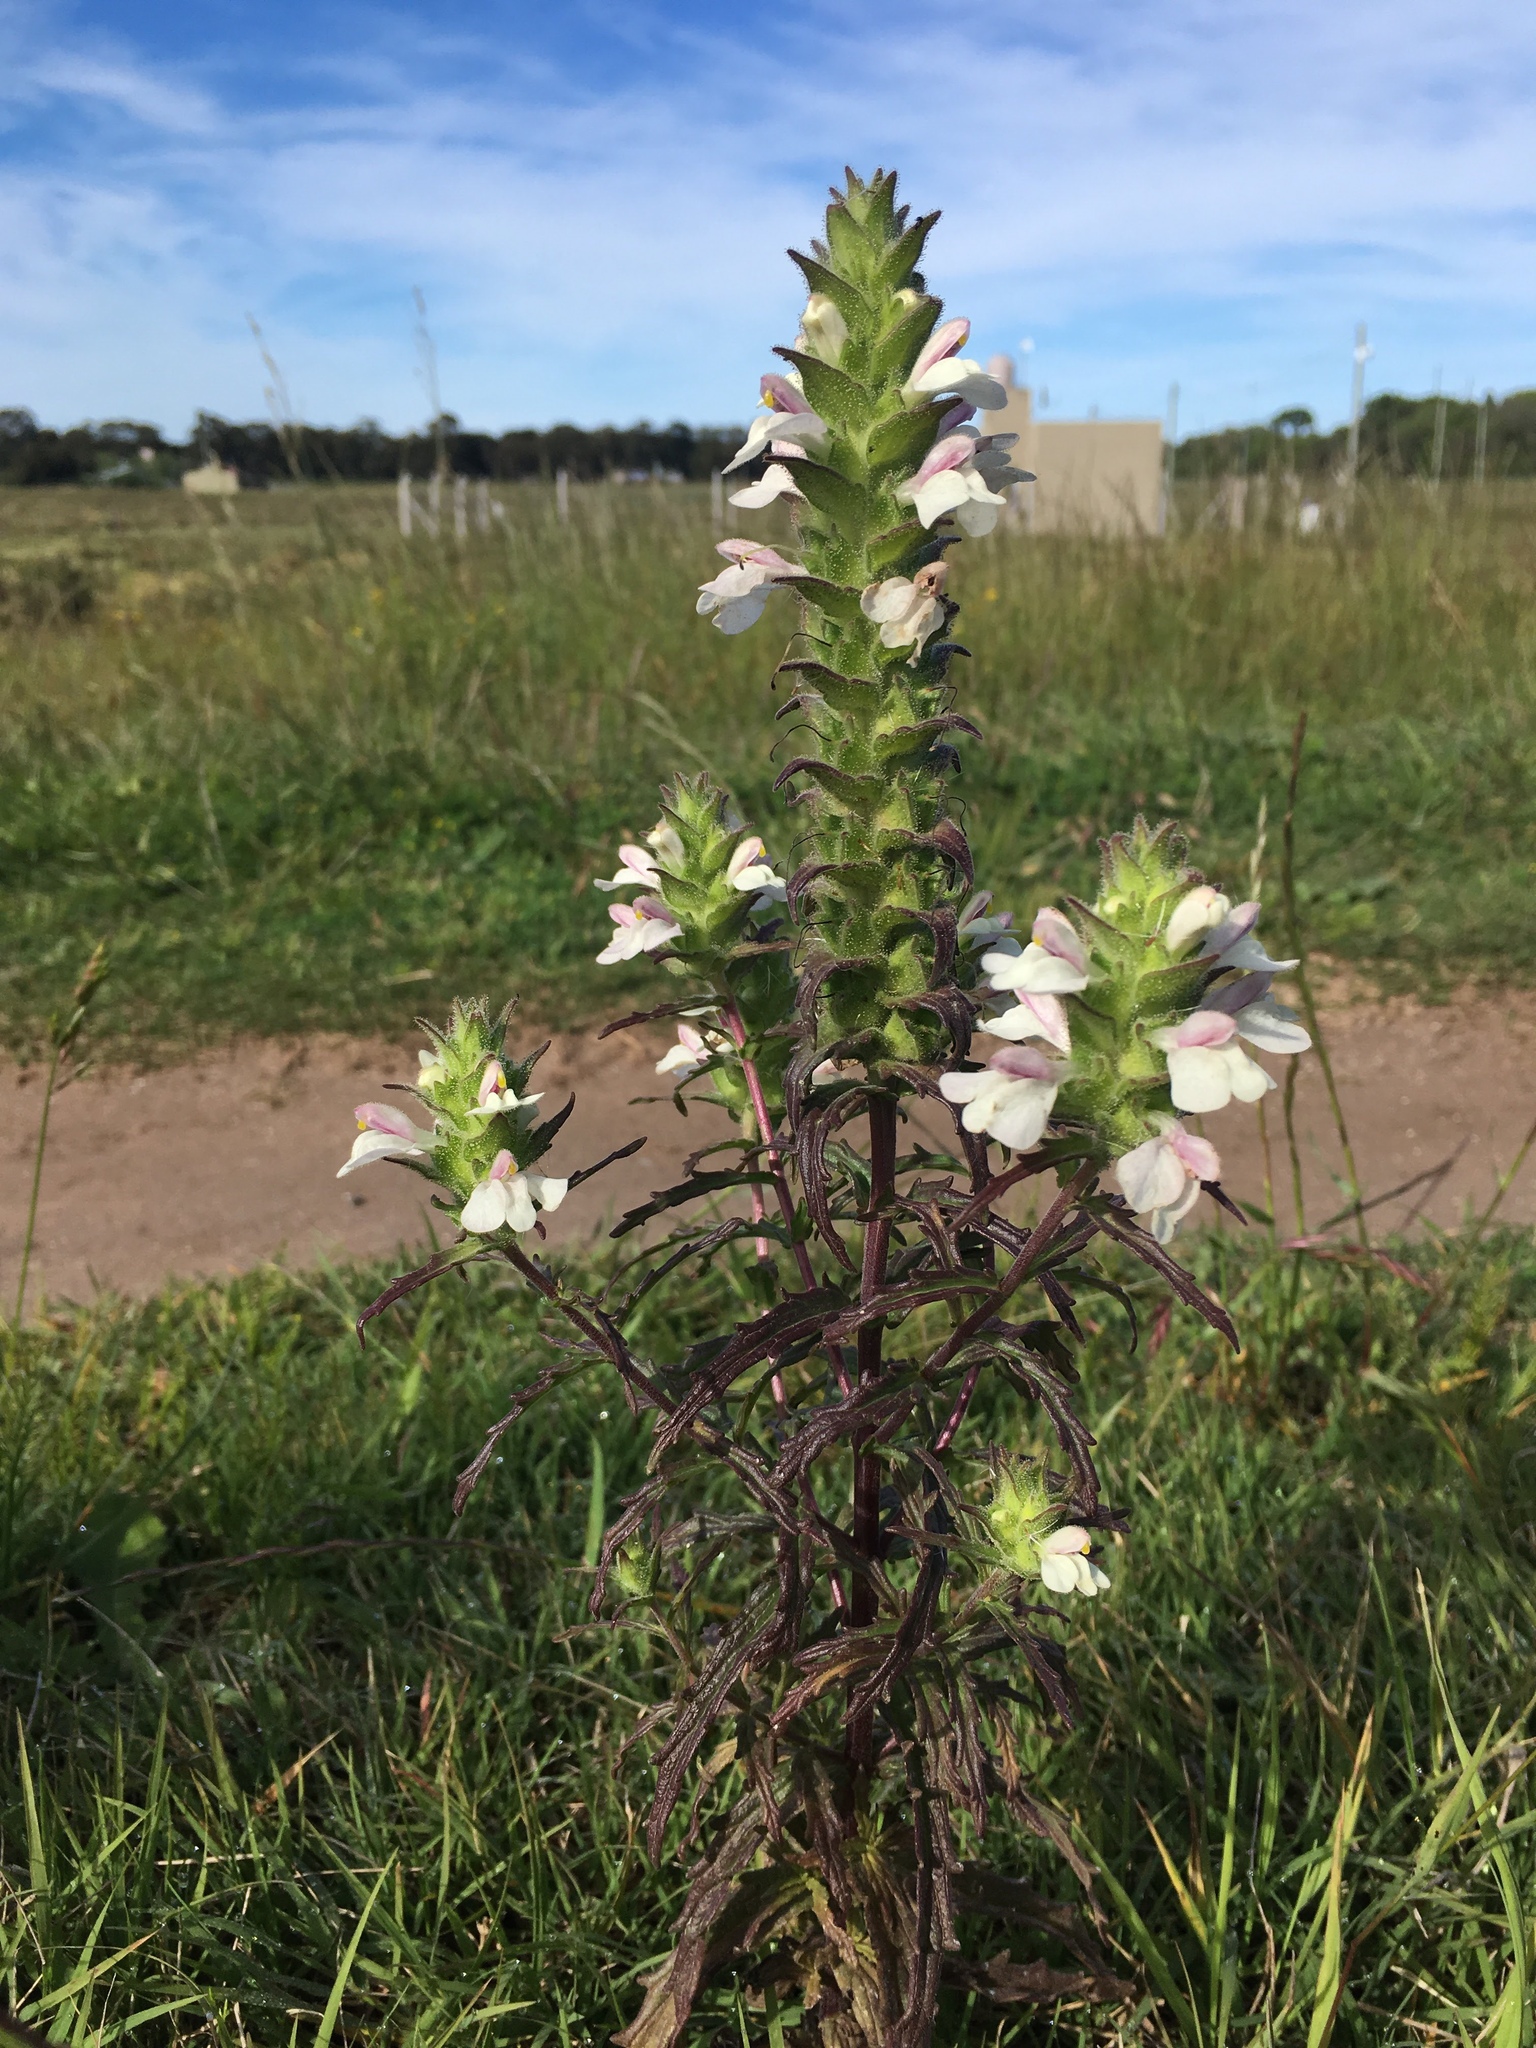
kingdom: Plantae
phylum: Tracheophyta
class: Magnoliopsida
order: Lamiales
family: Orobanchaceae
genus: Bellardia
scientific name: Bellardia trixago
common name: Mediterranean lineseed
